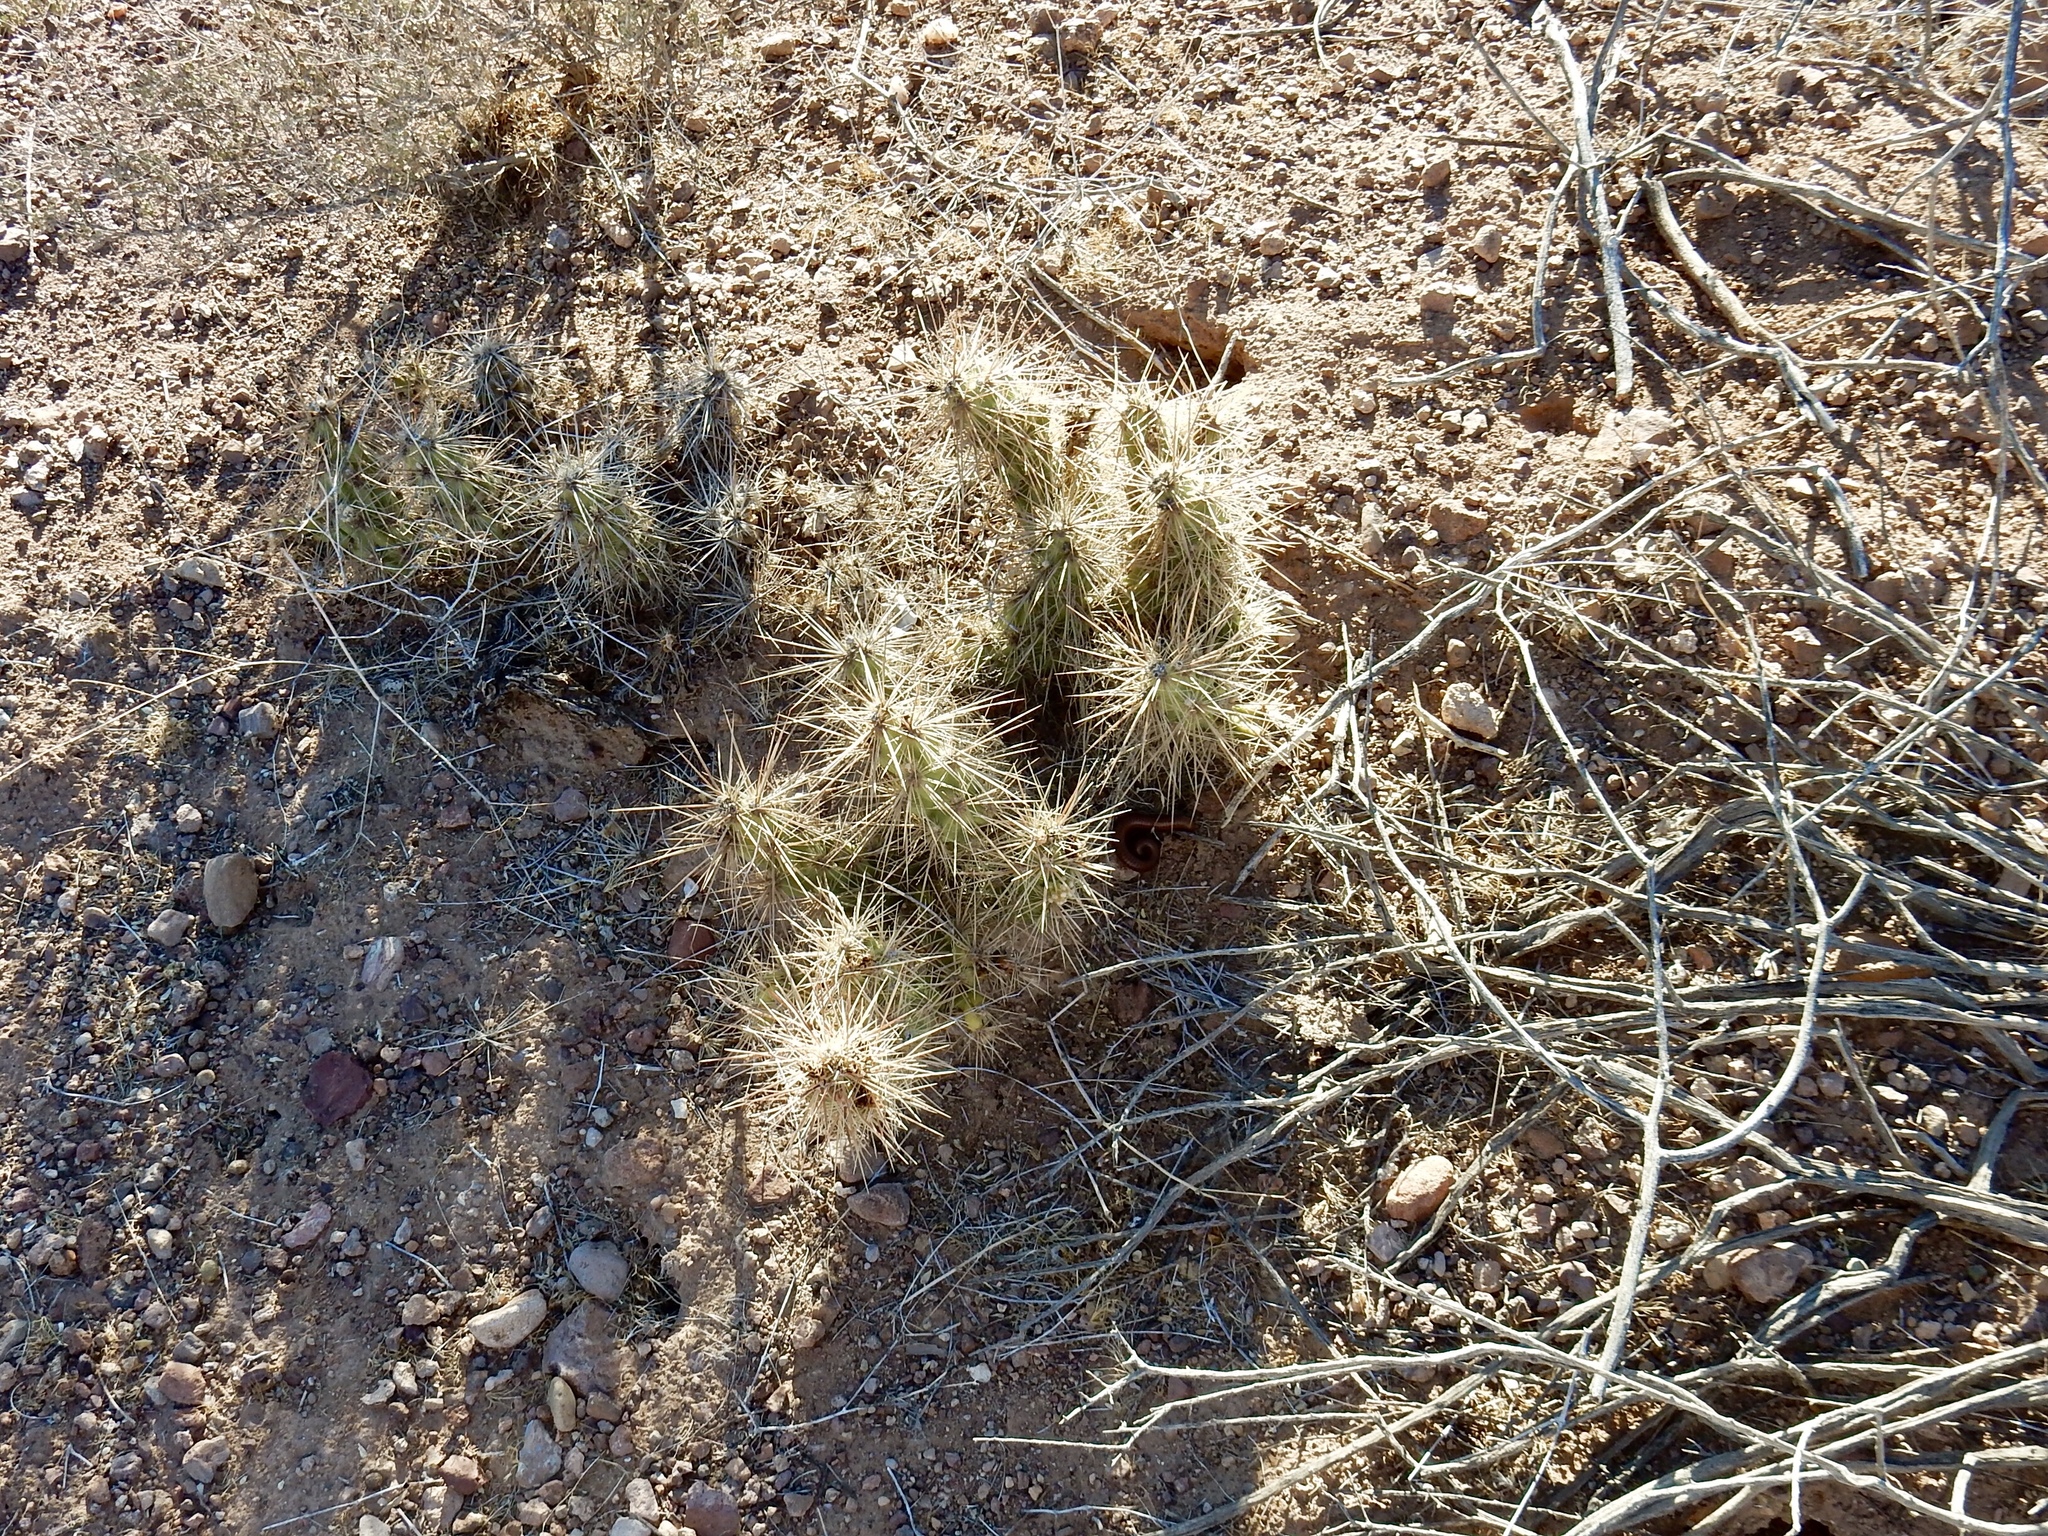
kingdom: Plantae
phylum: Tracheophyta
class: Magnoliopsida
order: Caryophyllales
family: Cactaceae
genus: Grusonia
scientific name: Grusonia emoryi
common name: Stanly's club cholla
